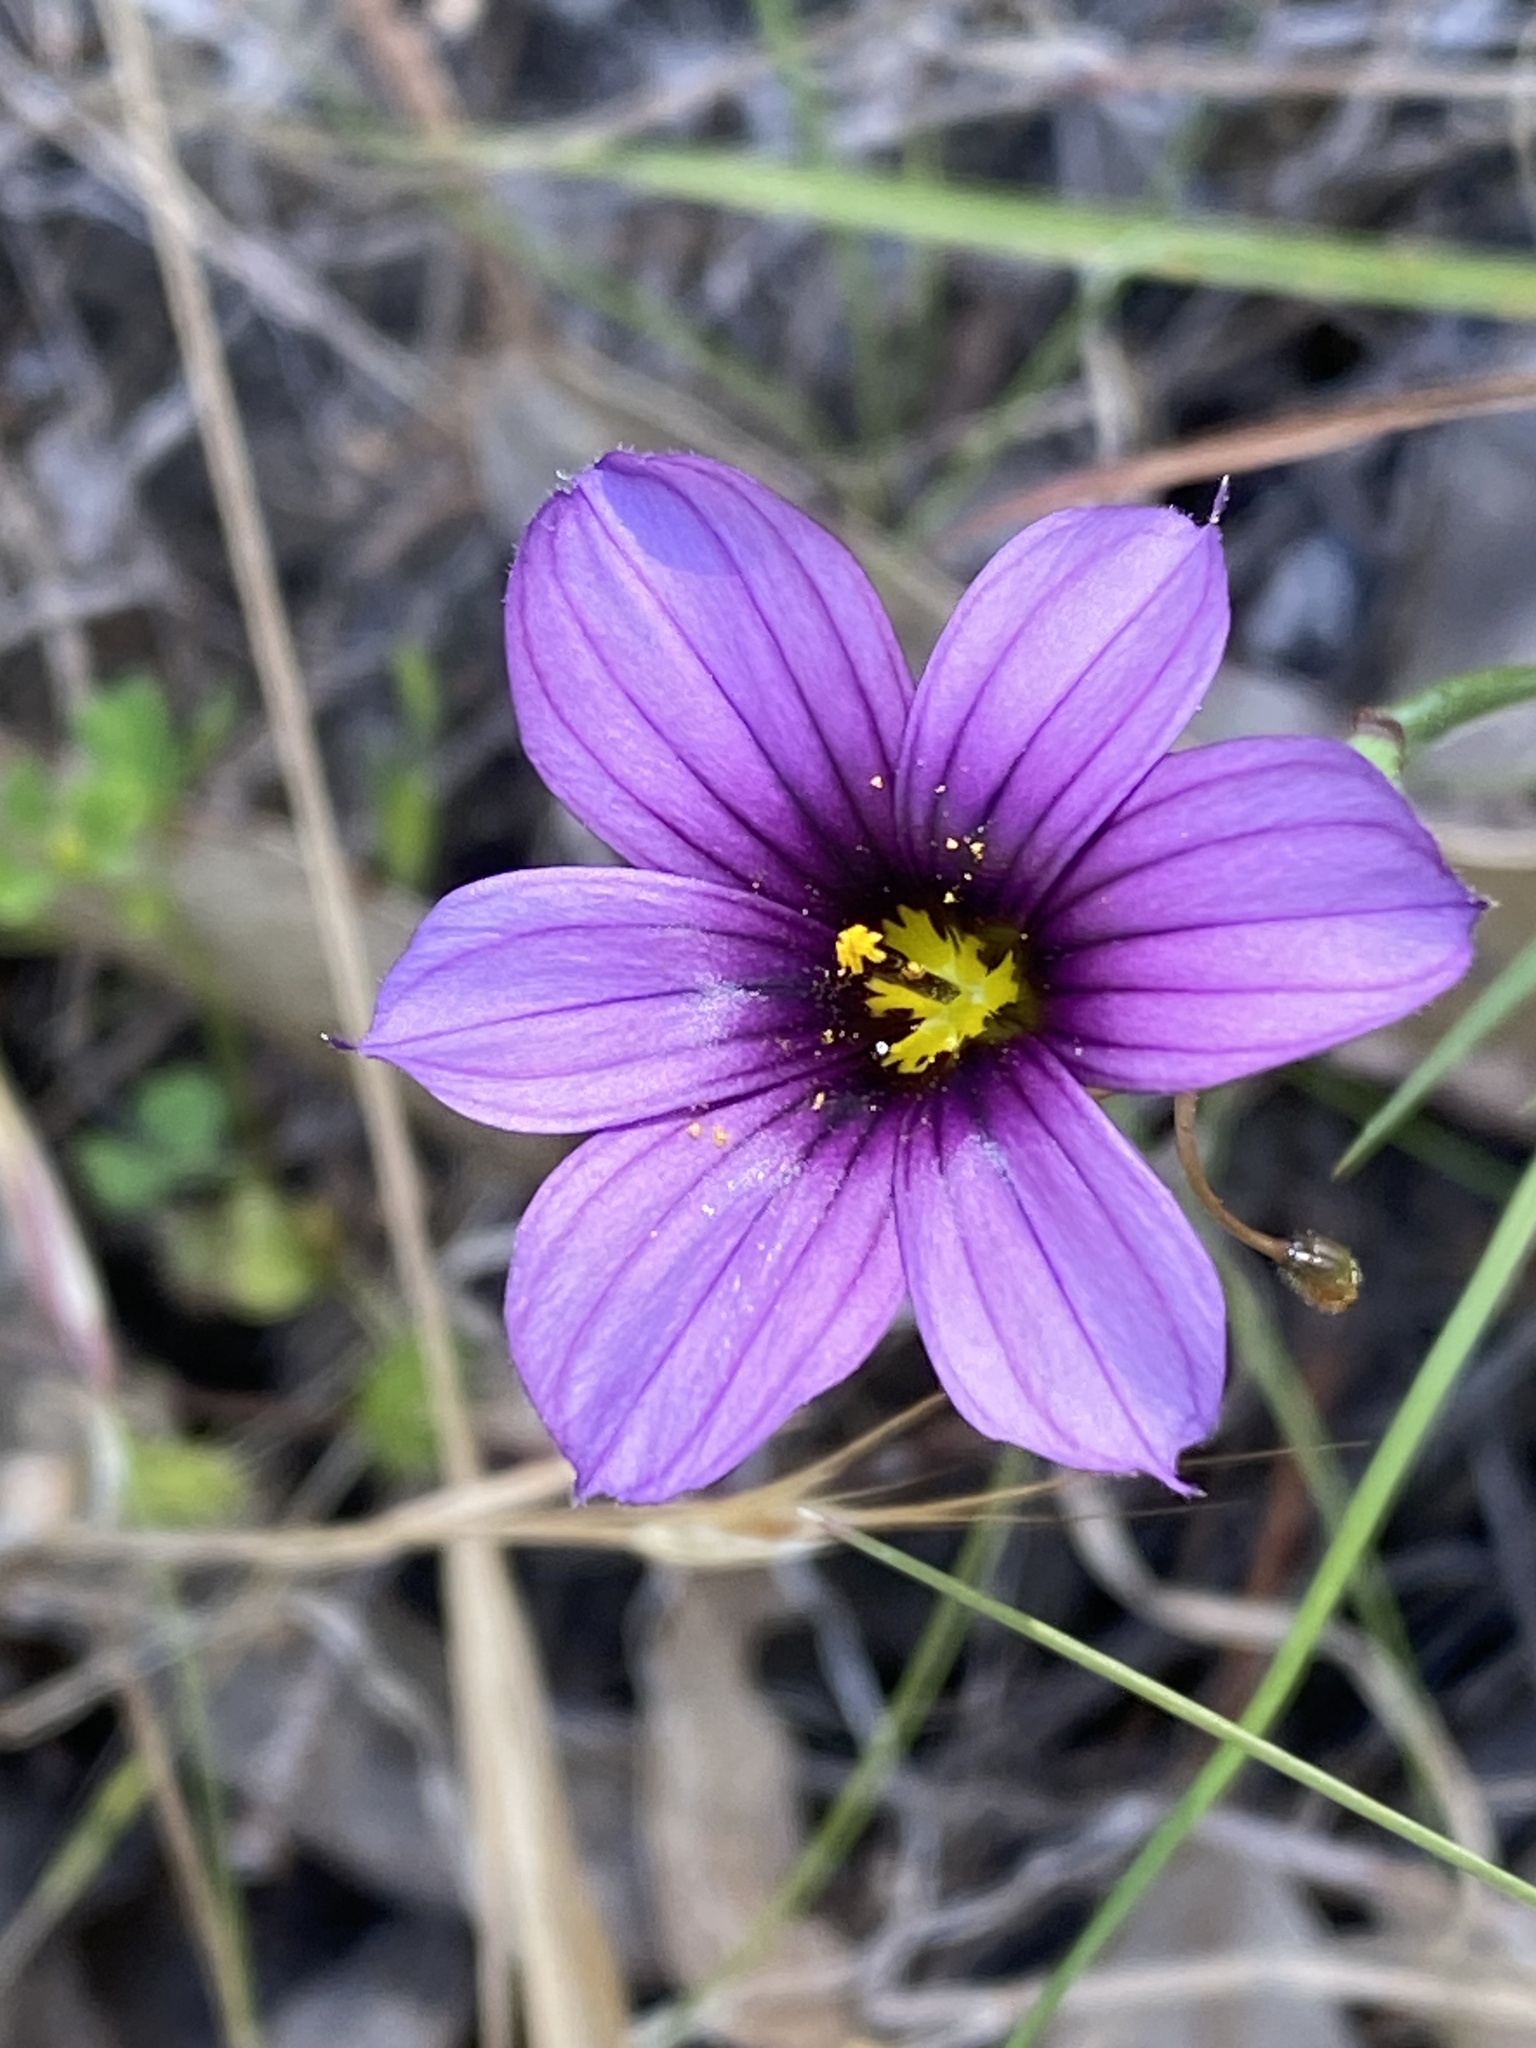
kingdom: Plantae
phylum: Tracheophyta
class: Liliopsida
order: Asparagales
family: Iridaceae
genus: Sisyrinchium
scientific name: Sisyrinchium bellum
